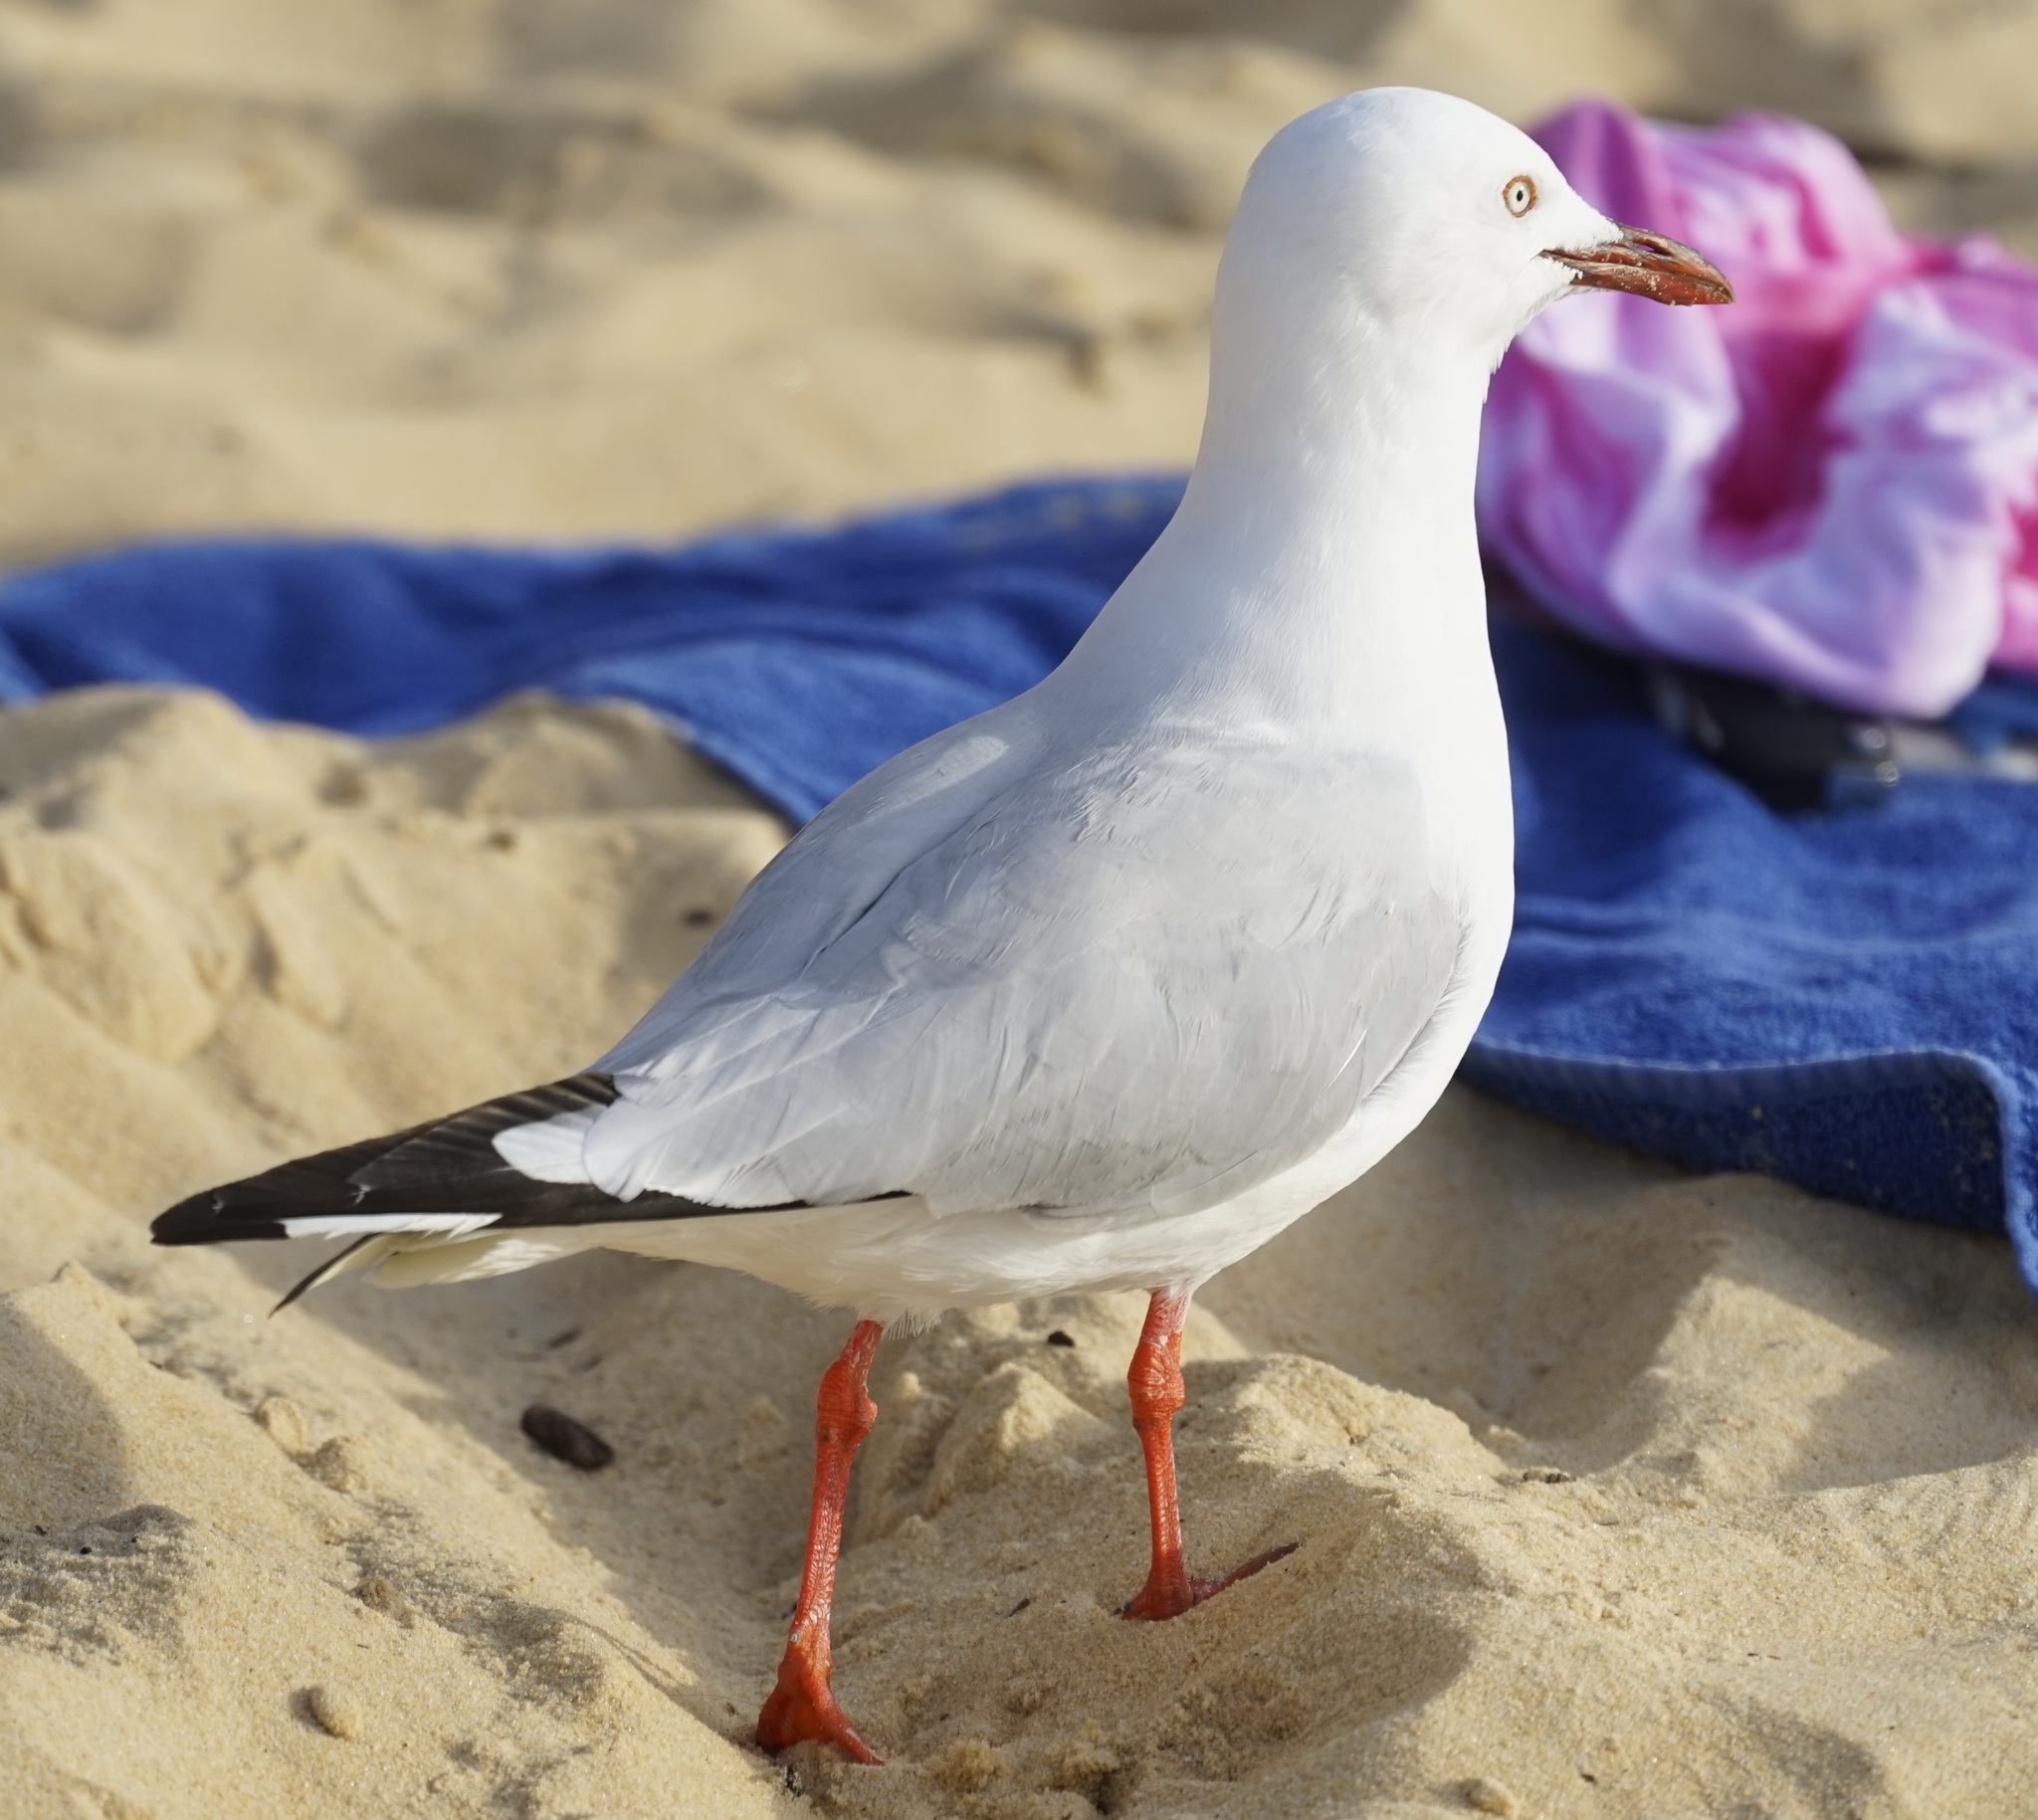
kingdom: Animalia
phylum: Chordata
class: Aves
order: Charadriiformes
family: Laridae
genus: Chroicocephalus
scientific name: Chroicocephalus novaehollandiae
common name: Silver gull
